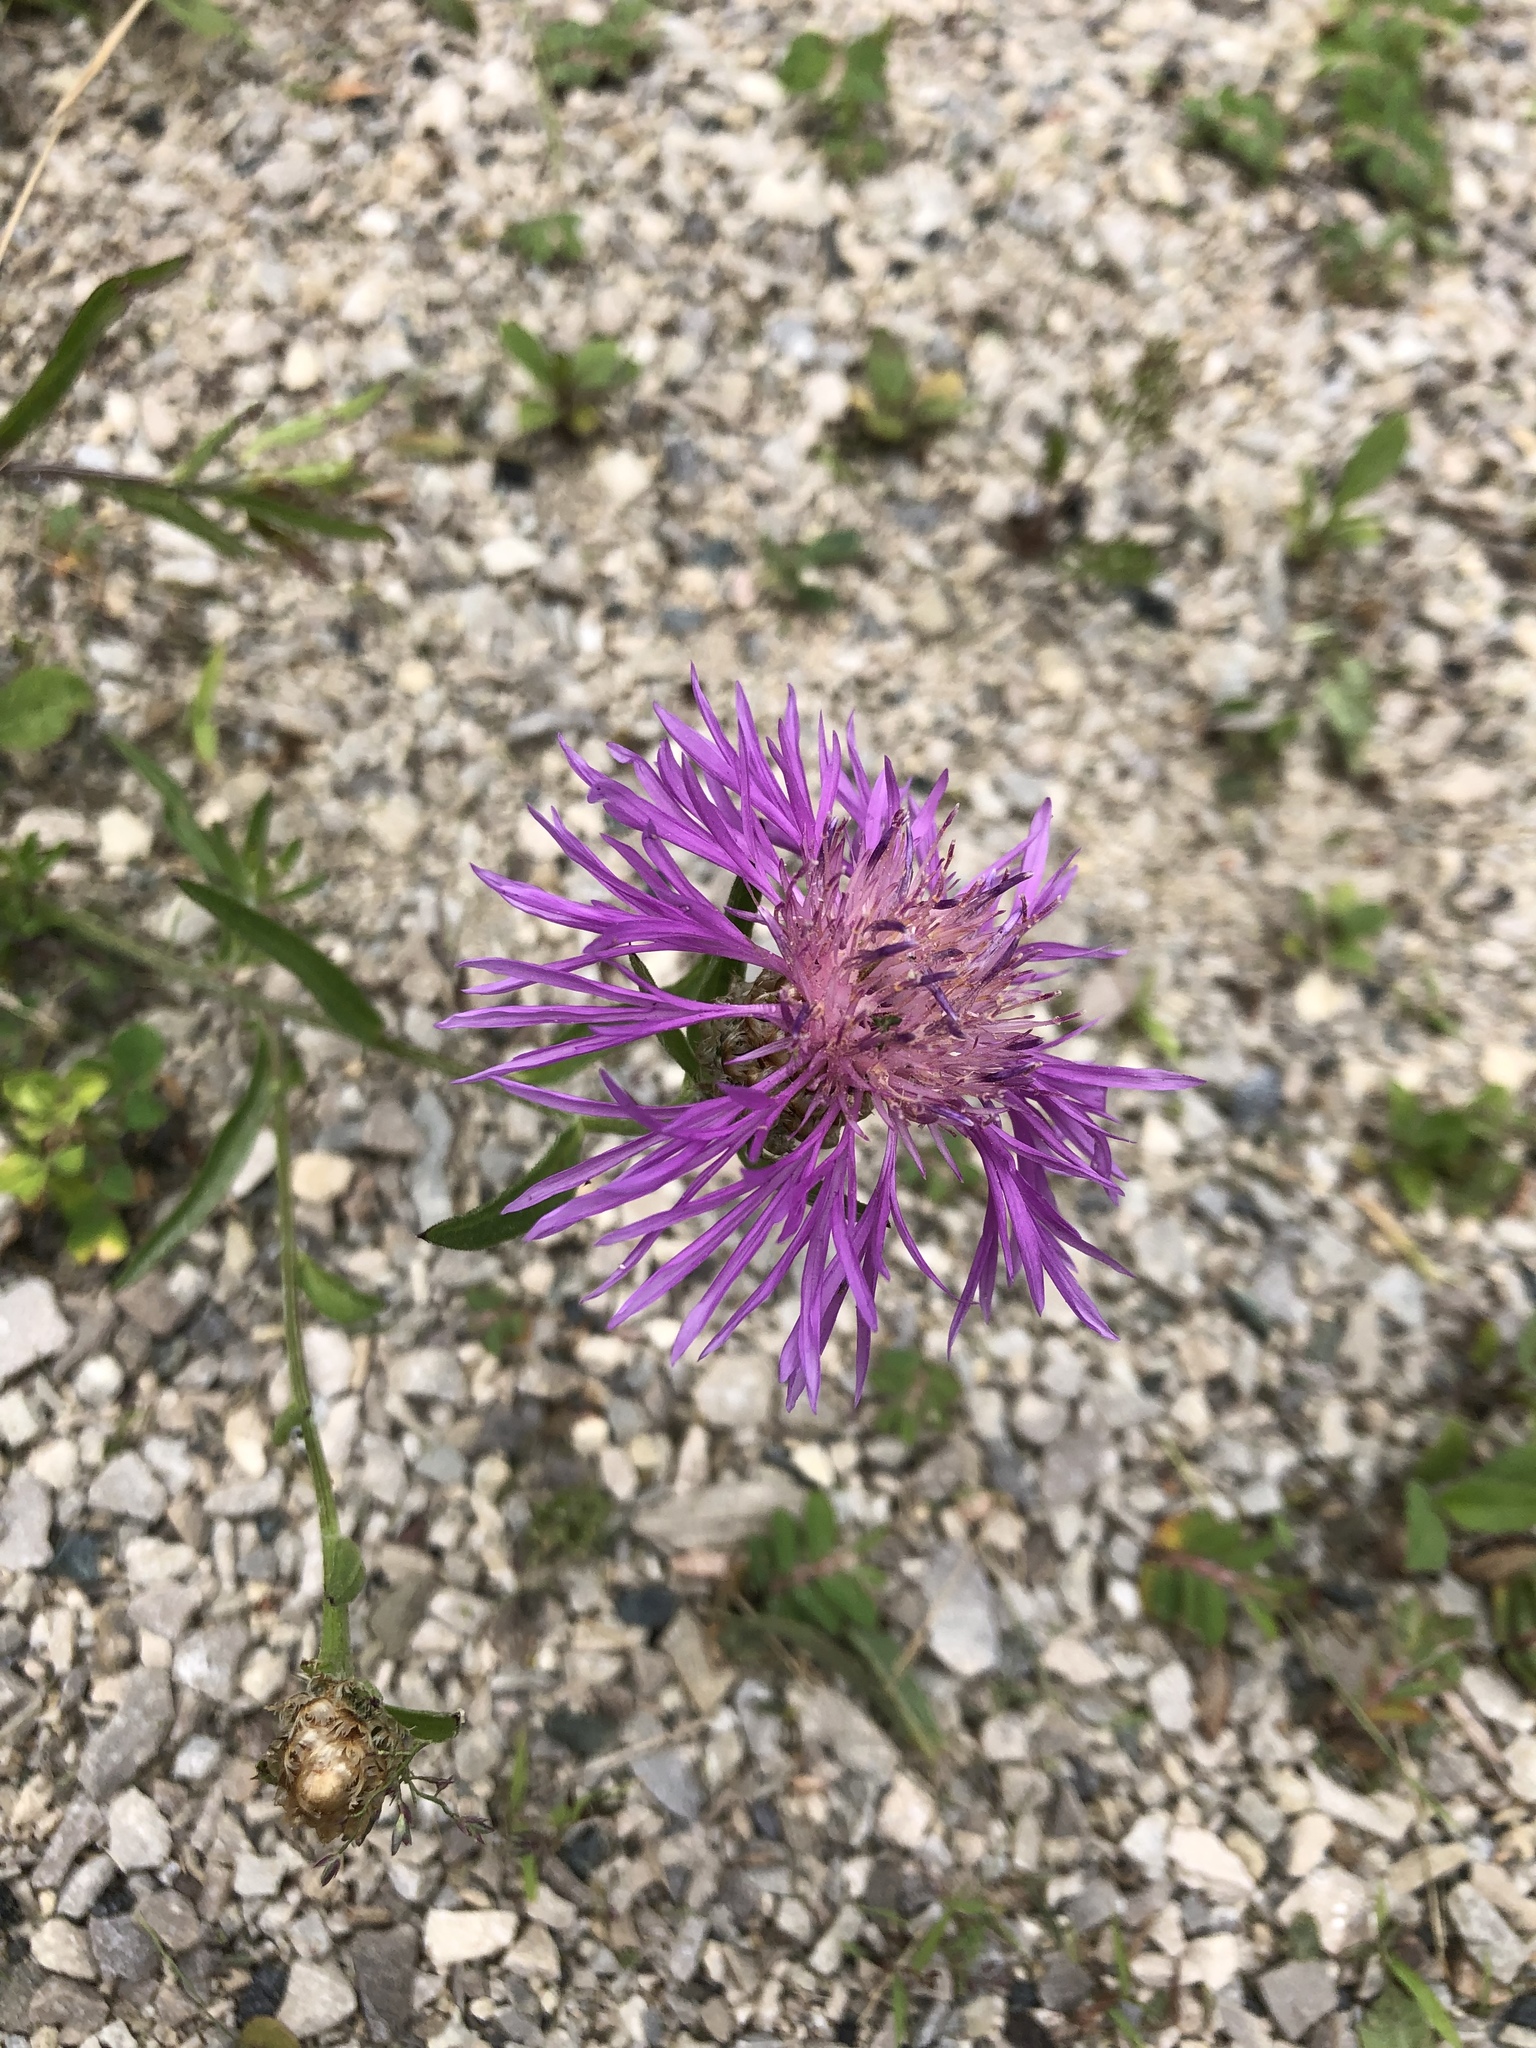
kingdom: Plantae
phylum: Tracheophyta
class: Magnoliopsida
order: Asterales
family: Asteraceae
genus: Centaurea
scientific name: Centaurea jacea
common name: Brown knapweed
